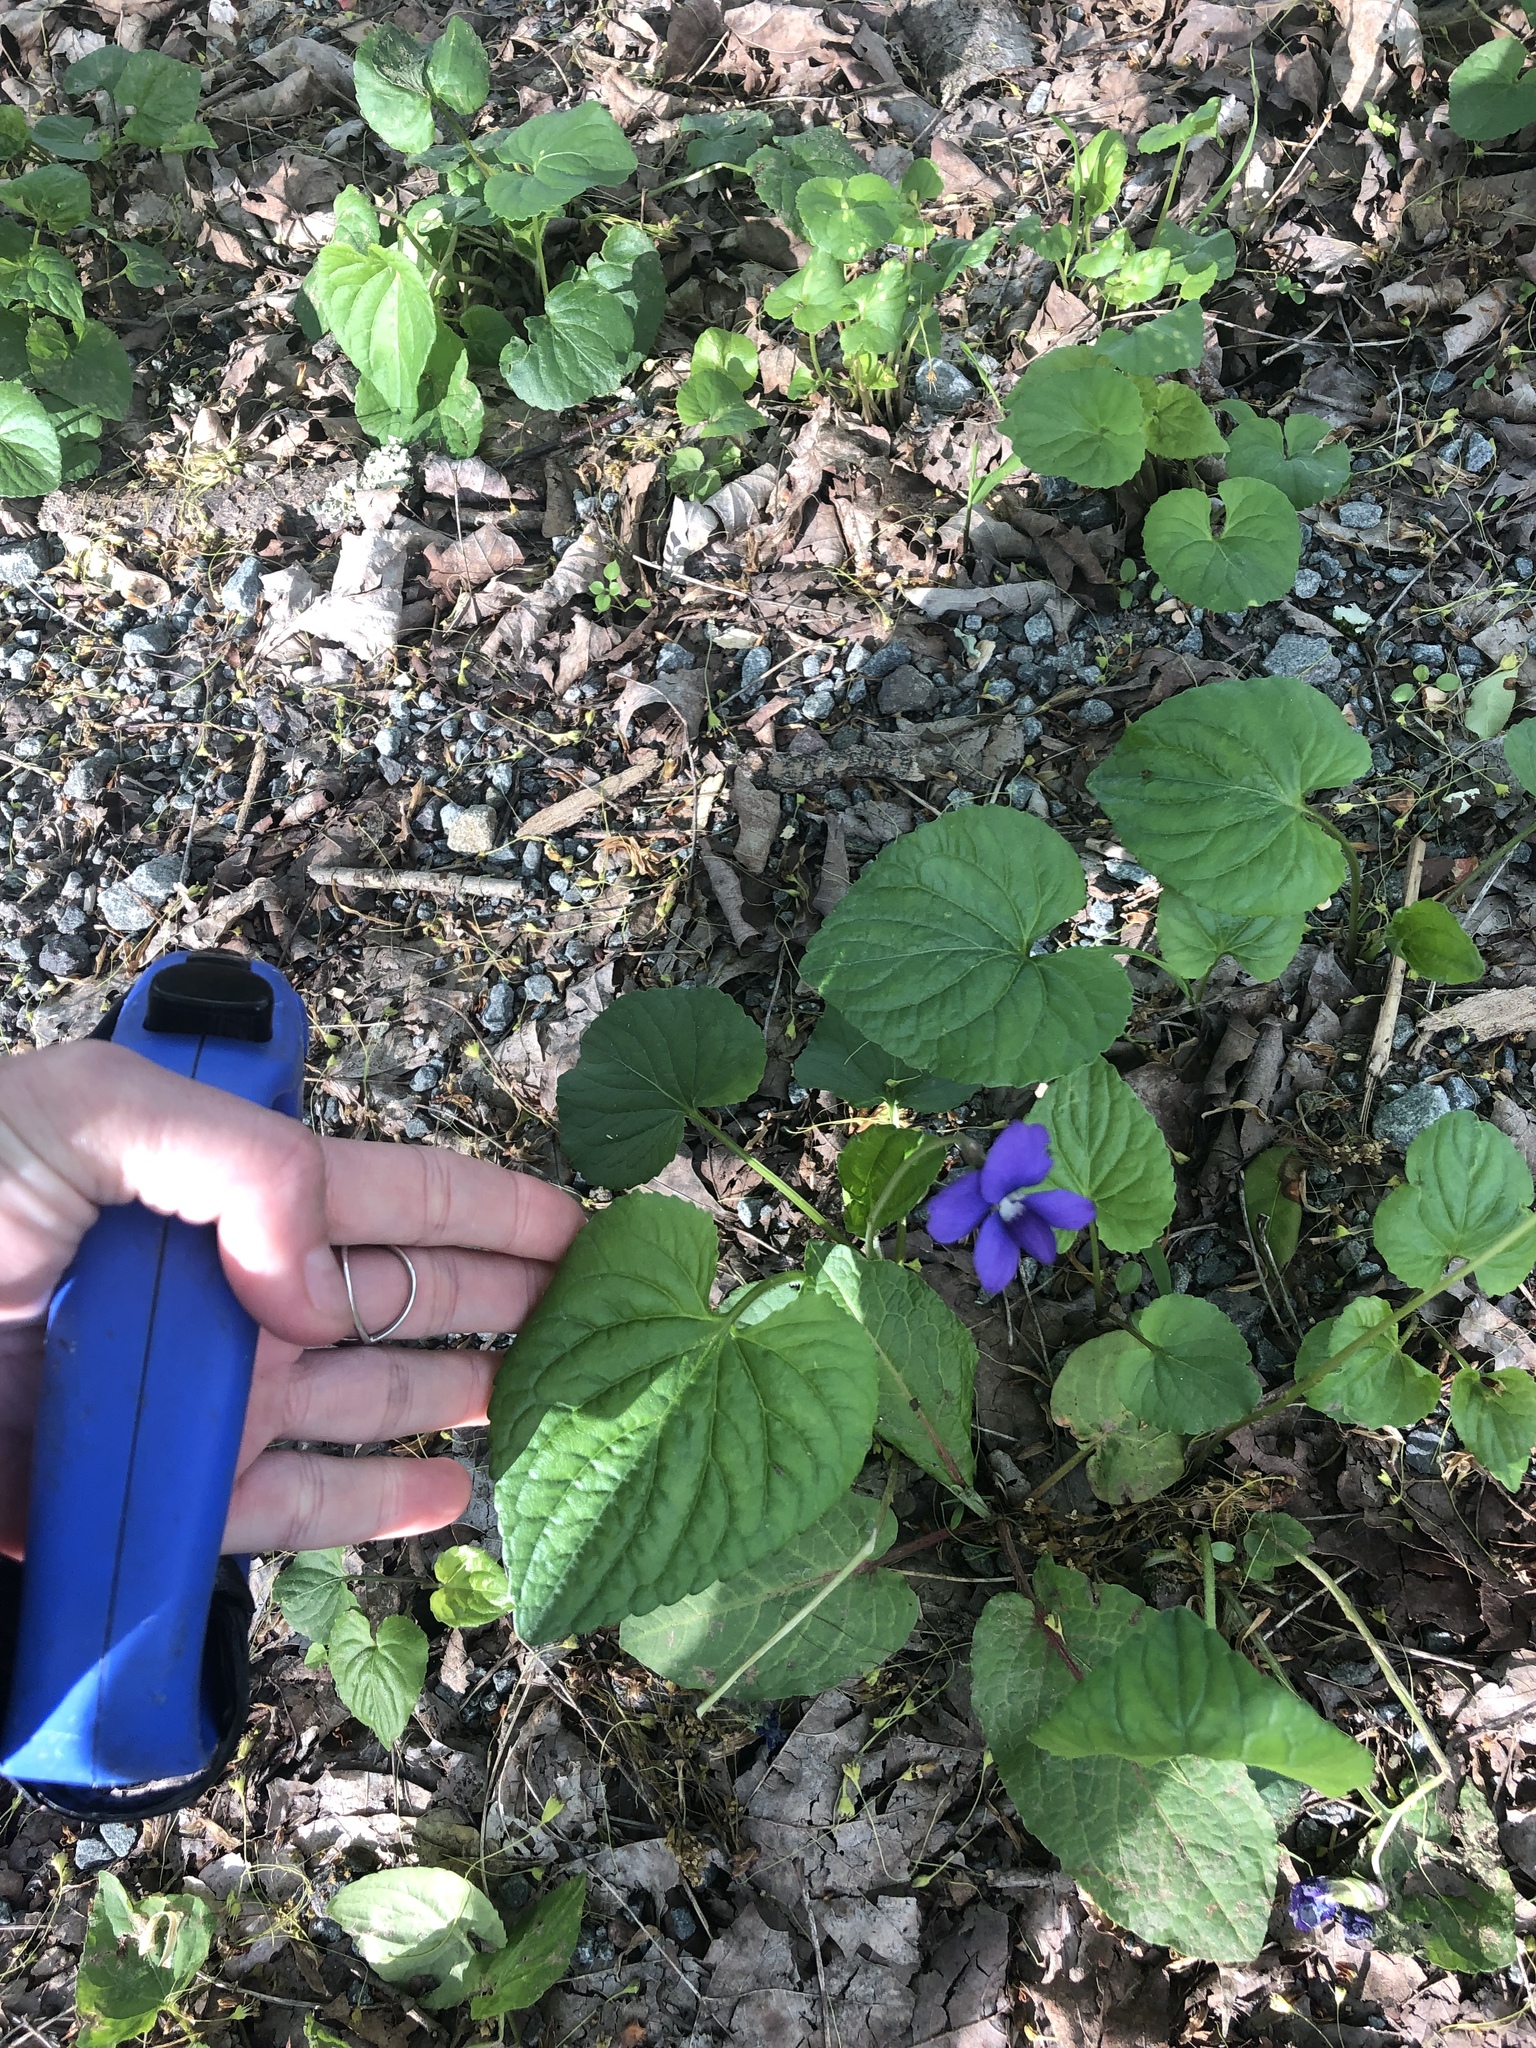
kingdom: Plantae
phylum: Tracheophyta
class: Magnoliopsida
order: Malpighiales
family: Violaceae
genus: Viola
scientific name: Viola sororia
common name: Dooryard violet
